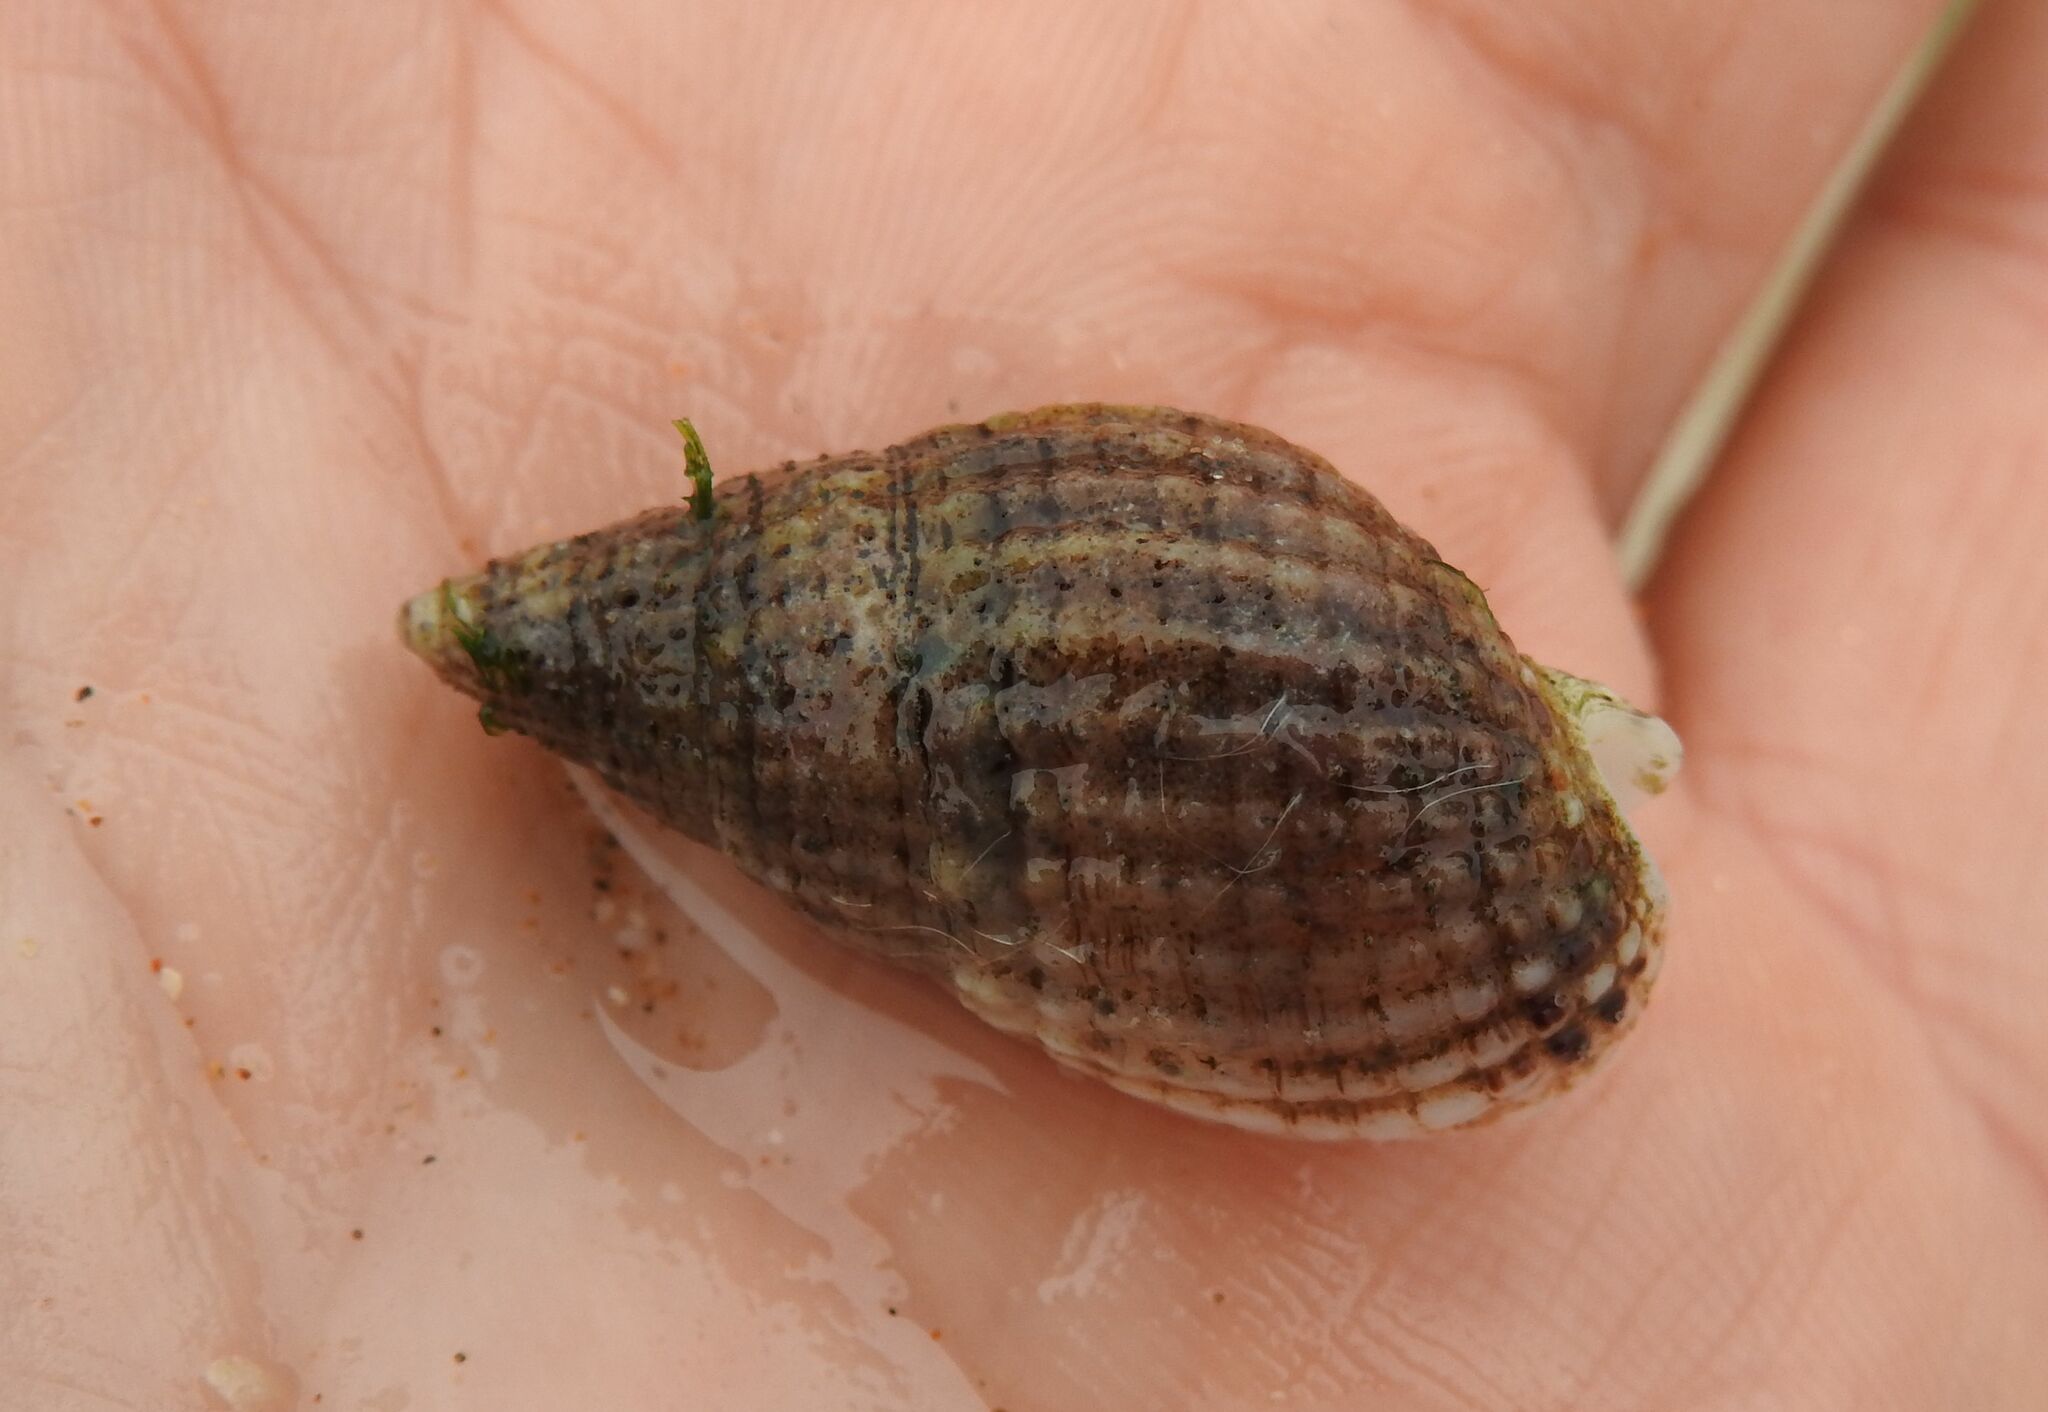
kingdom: Animalia
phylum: Mollusca
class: Gastropoda
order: Neogastropoda
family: Nassariidae
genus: Tritia
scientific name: Tritia reticulata
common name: Netted dog whelk
